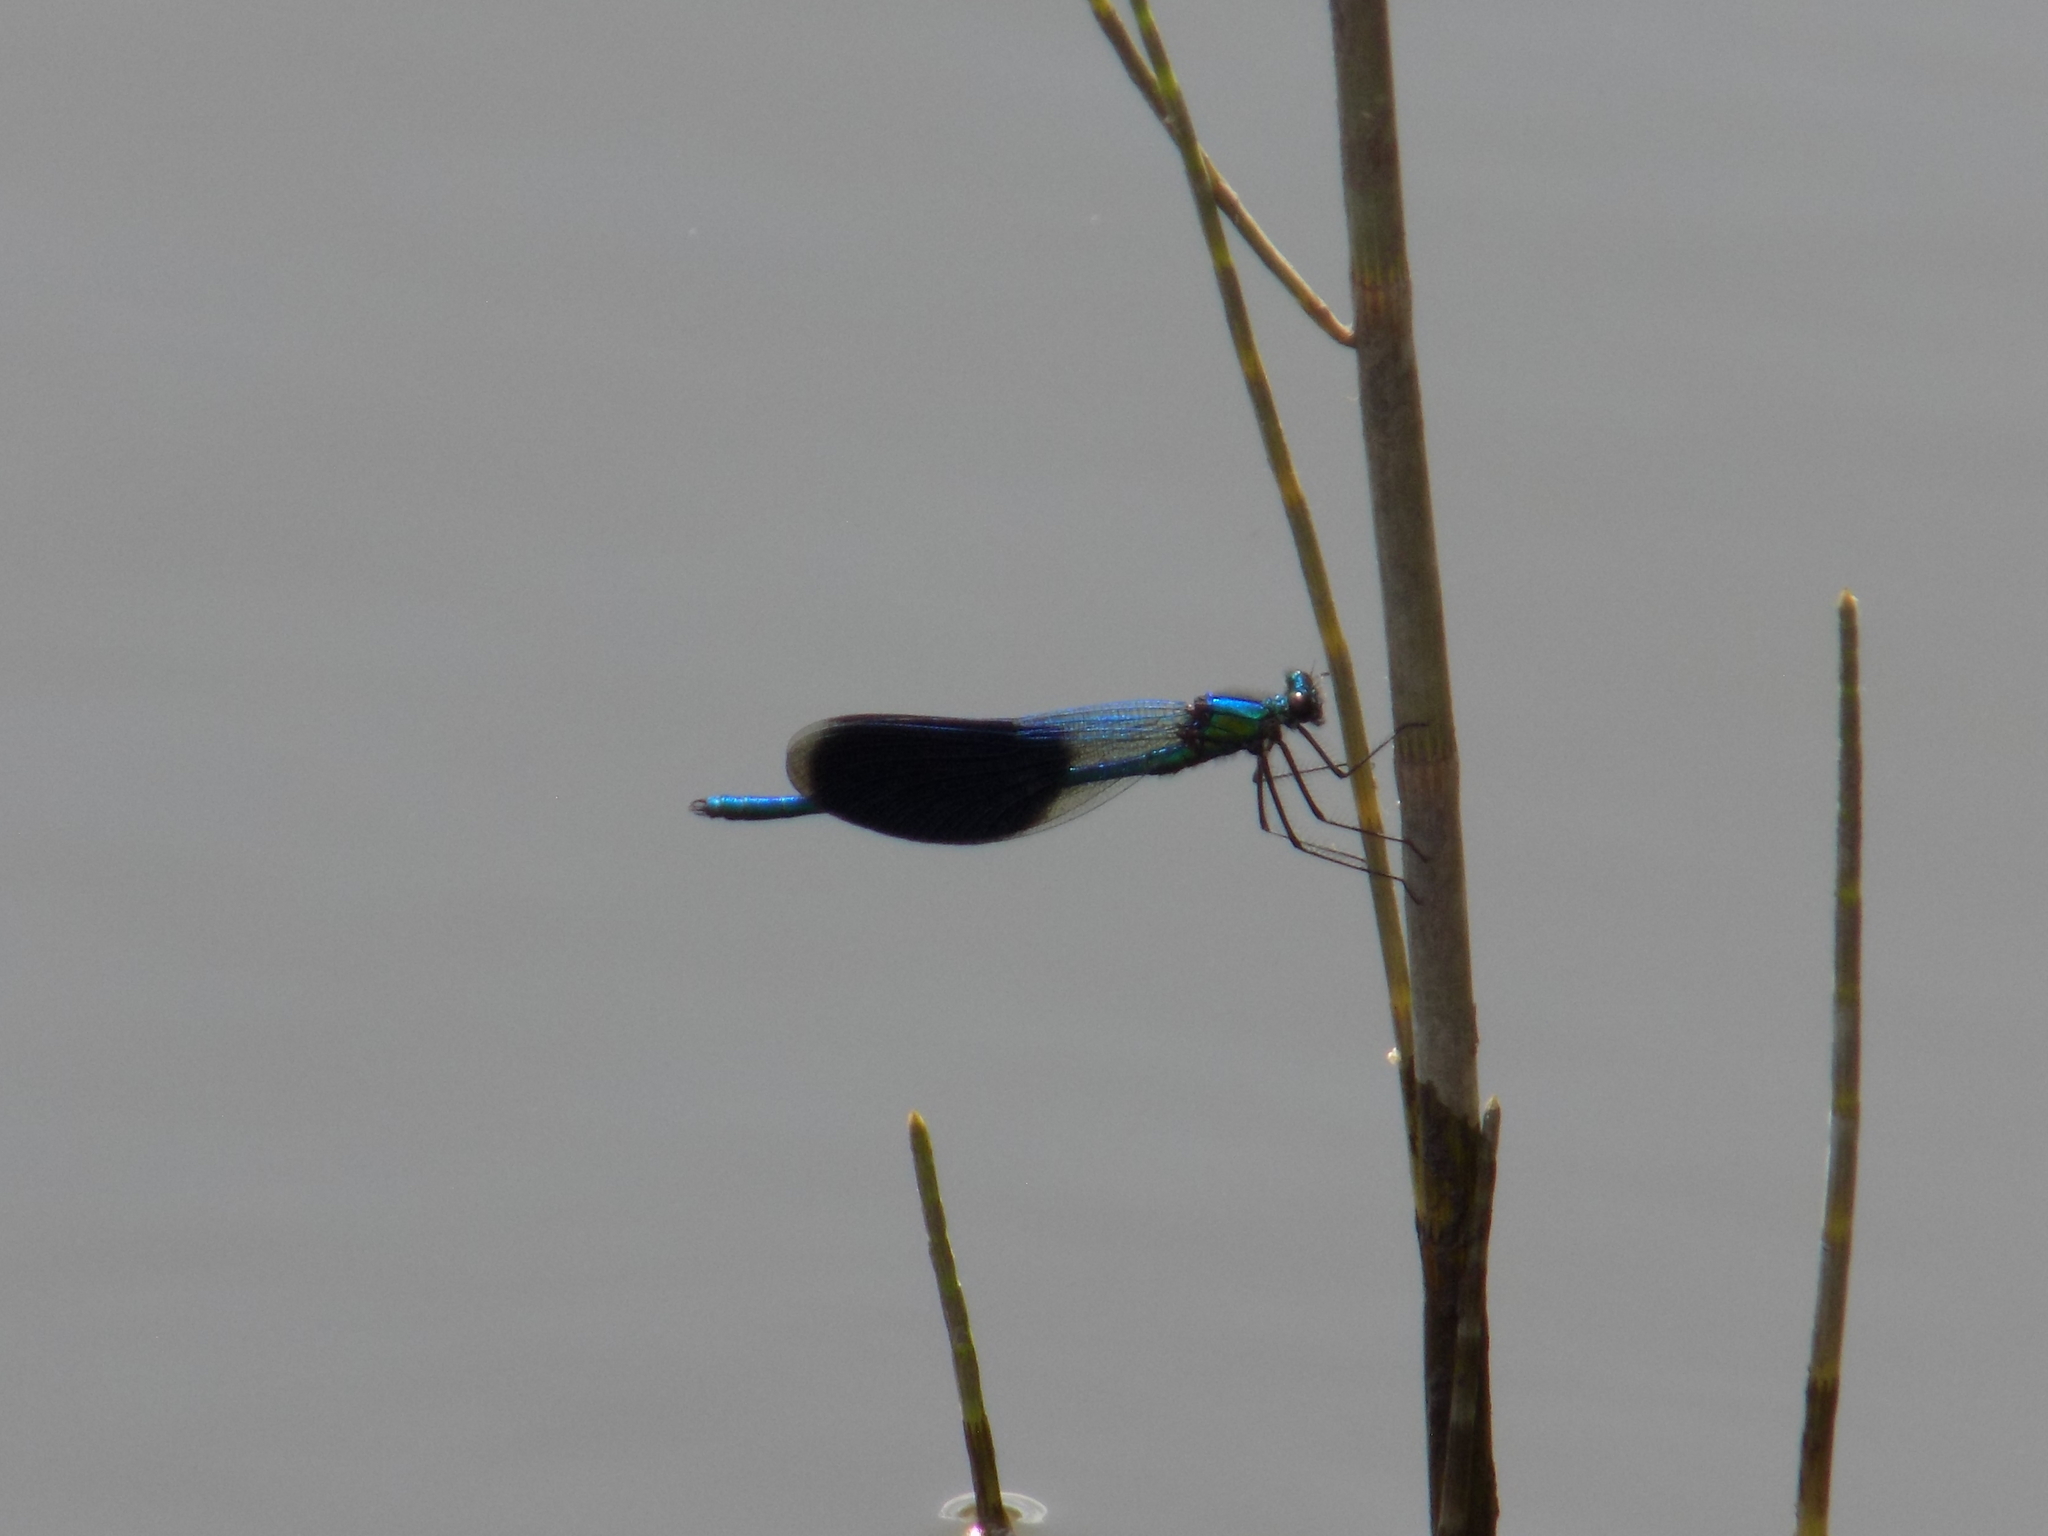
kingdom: Animalia
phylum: Arthropoda
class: Insecta
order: Odonata
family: Calopterygidae
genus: Calopteryx
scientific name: Calopteryx splendens
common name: Banded demoiselle
